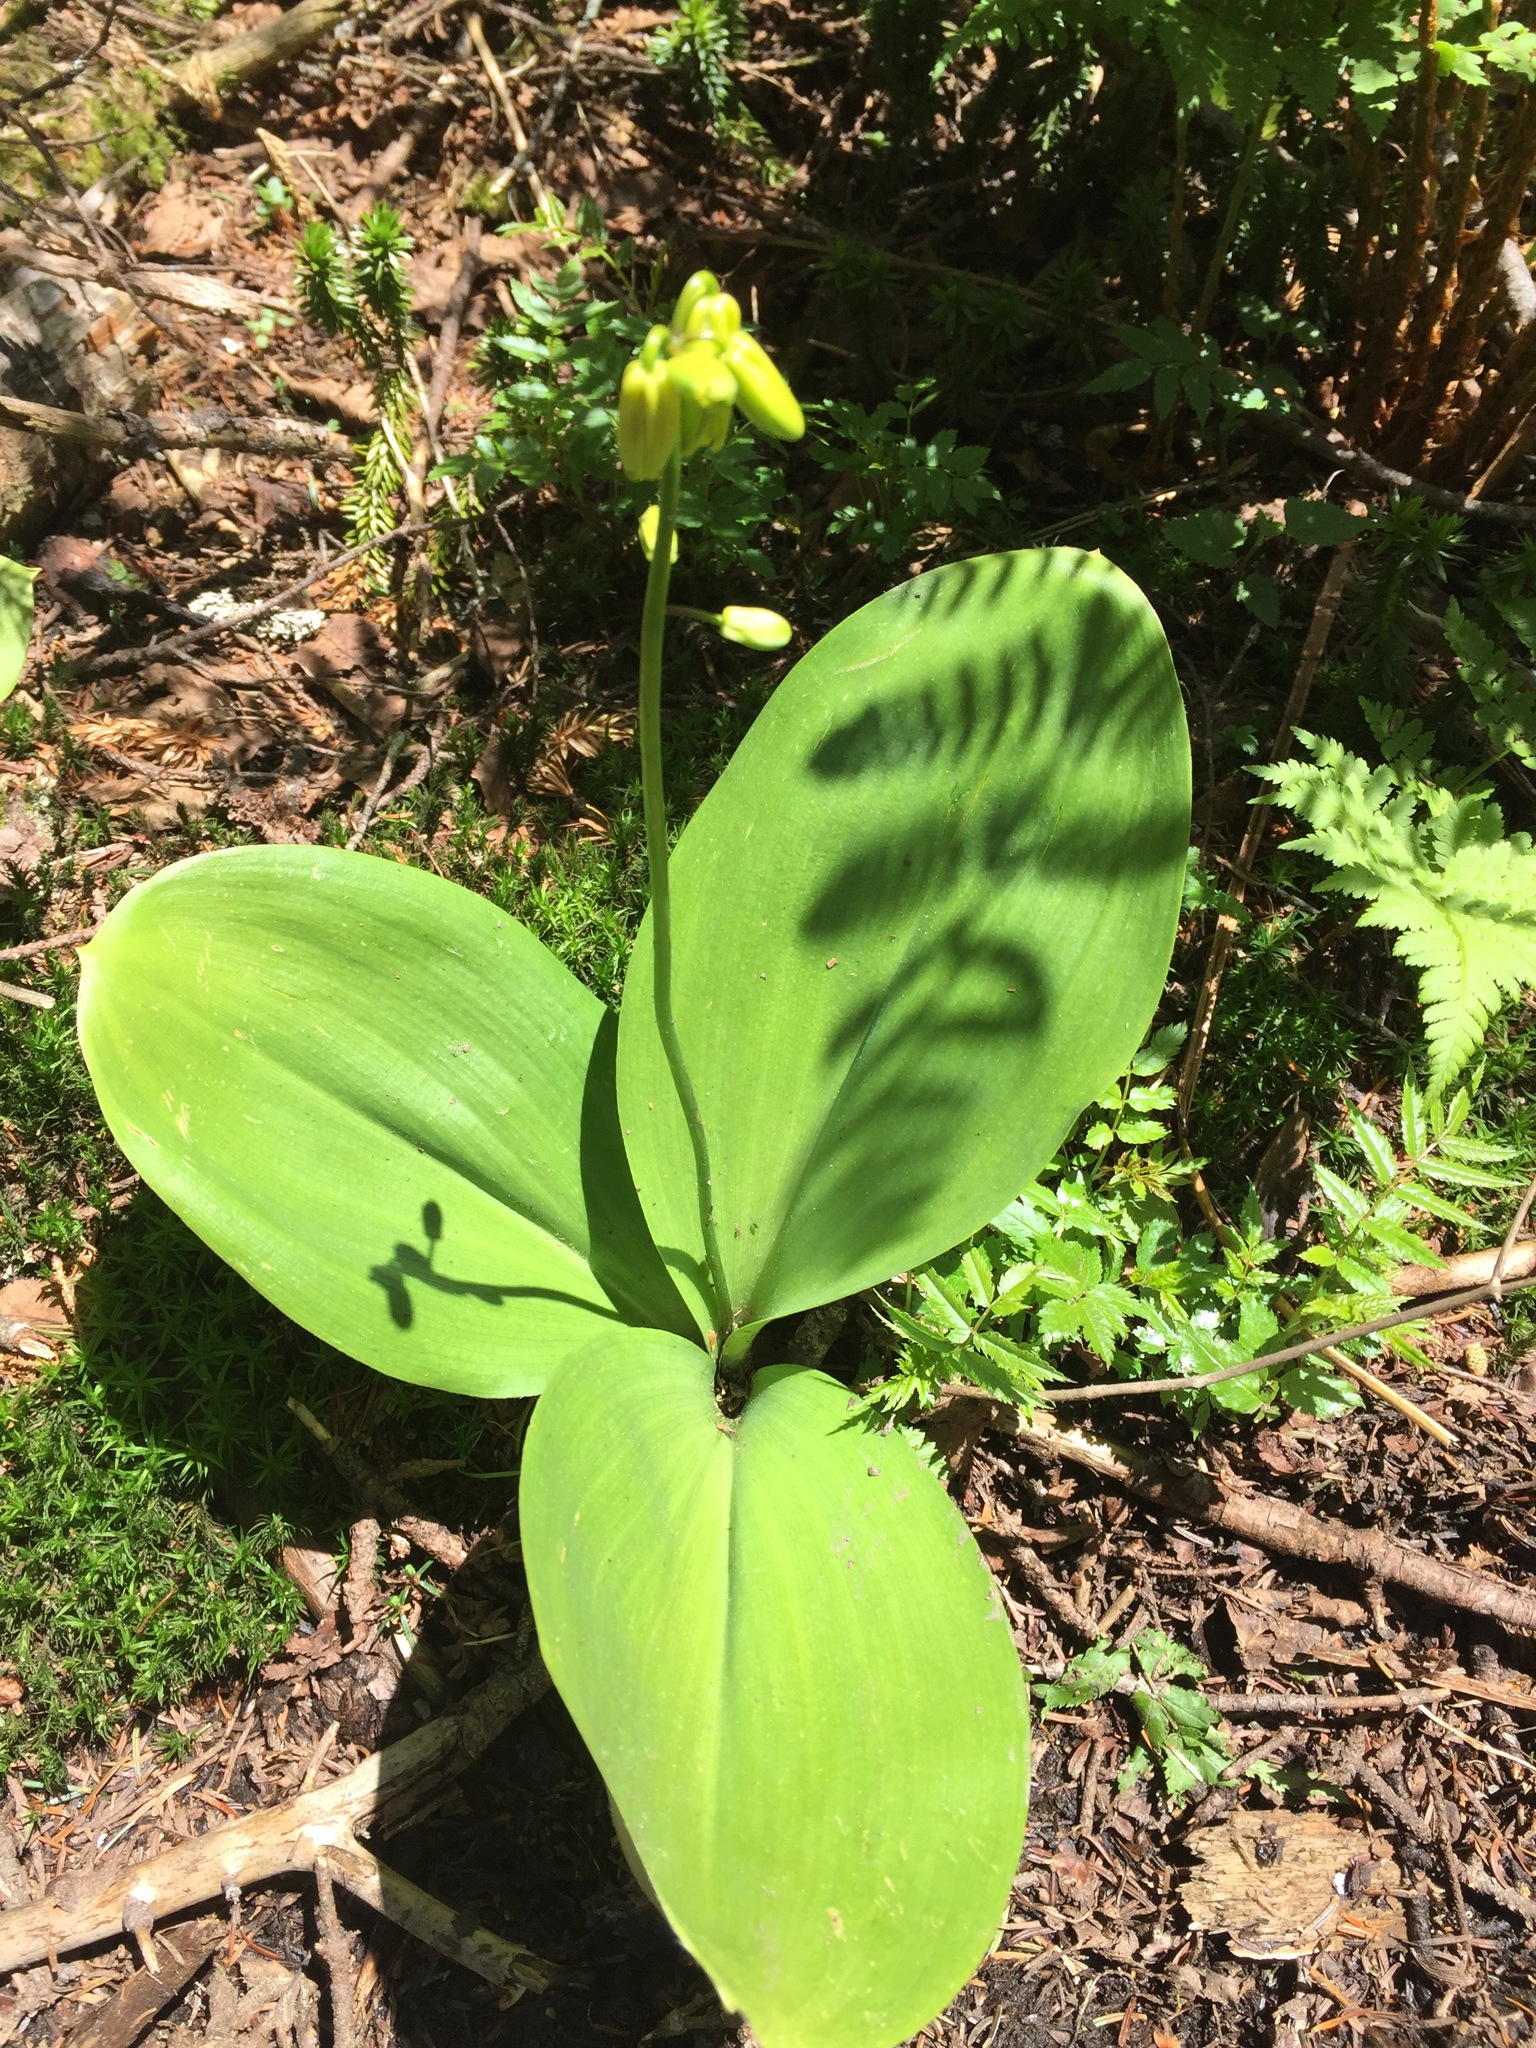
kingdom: Plantae
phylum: Tracheophyta
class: Liliopsida
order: Liliales
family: Liliaceae
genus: Clintonia
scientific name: Clintonia borealis
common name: Yellow clintonia
